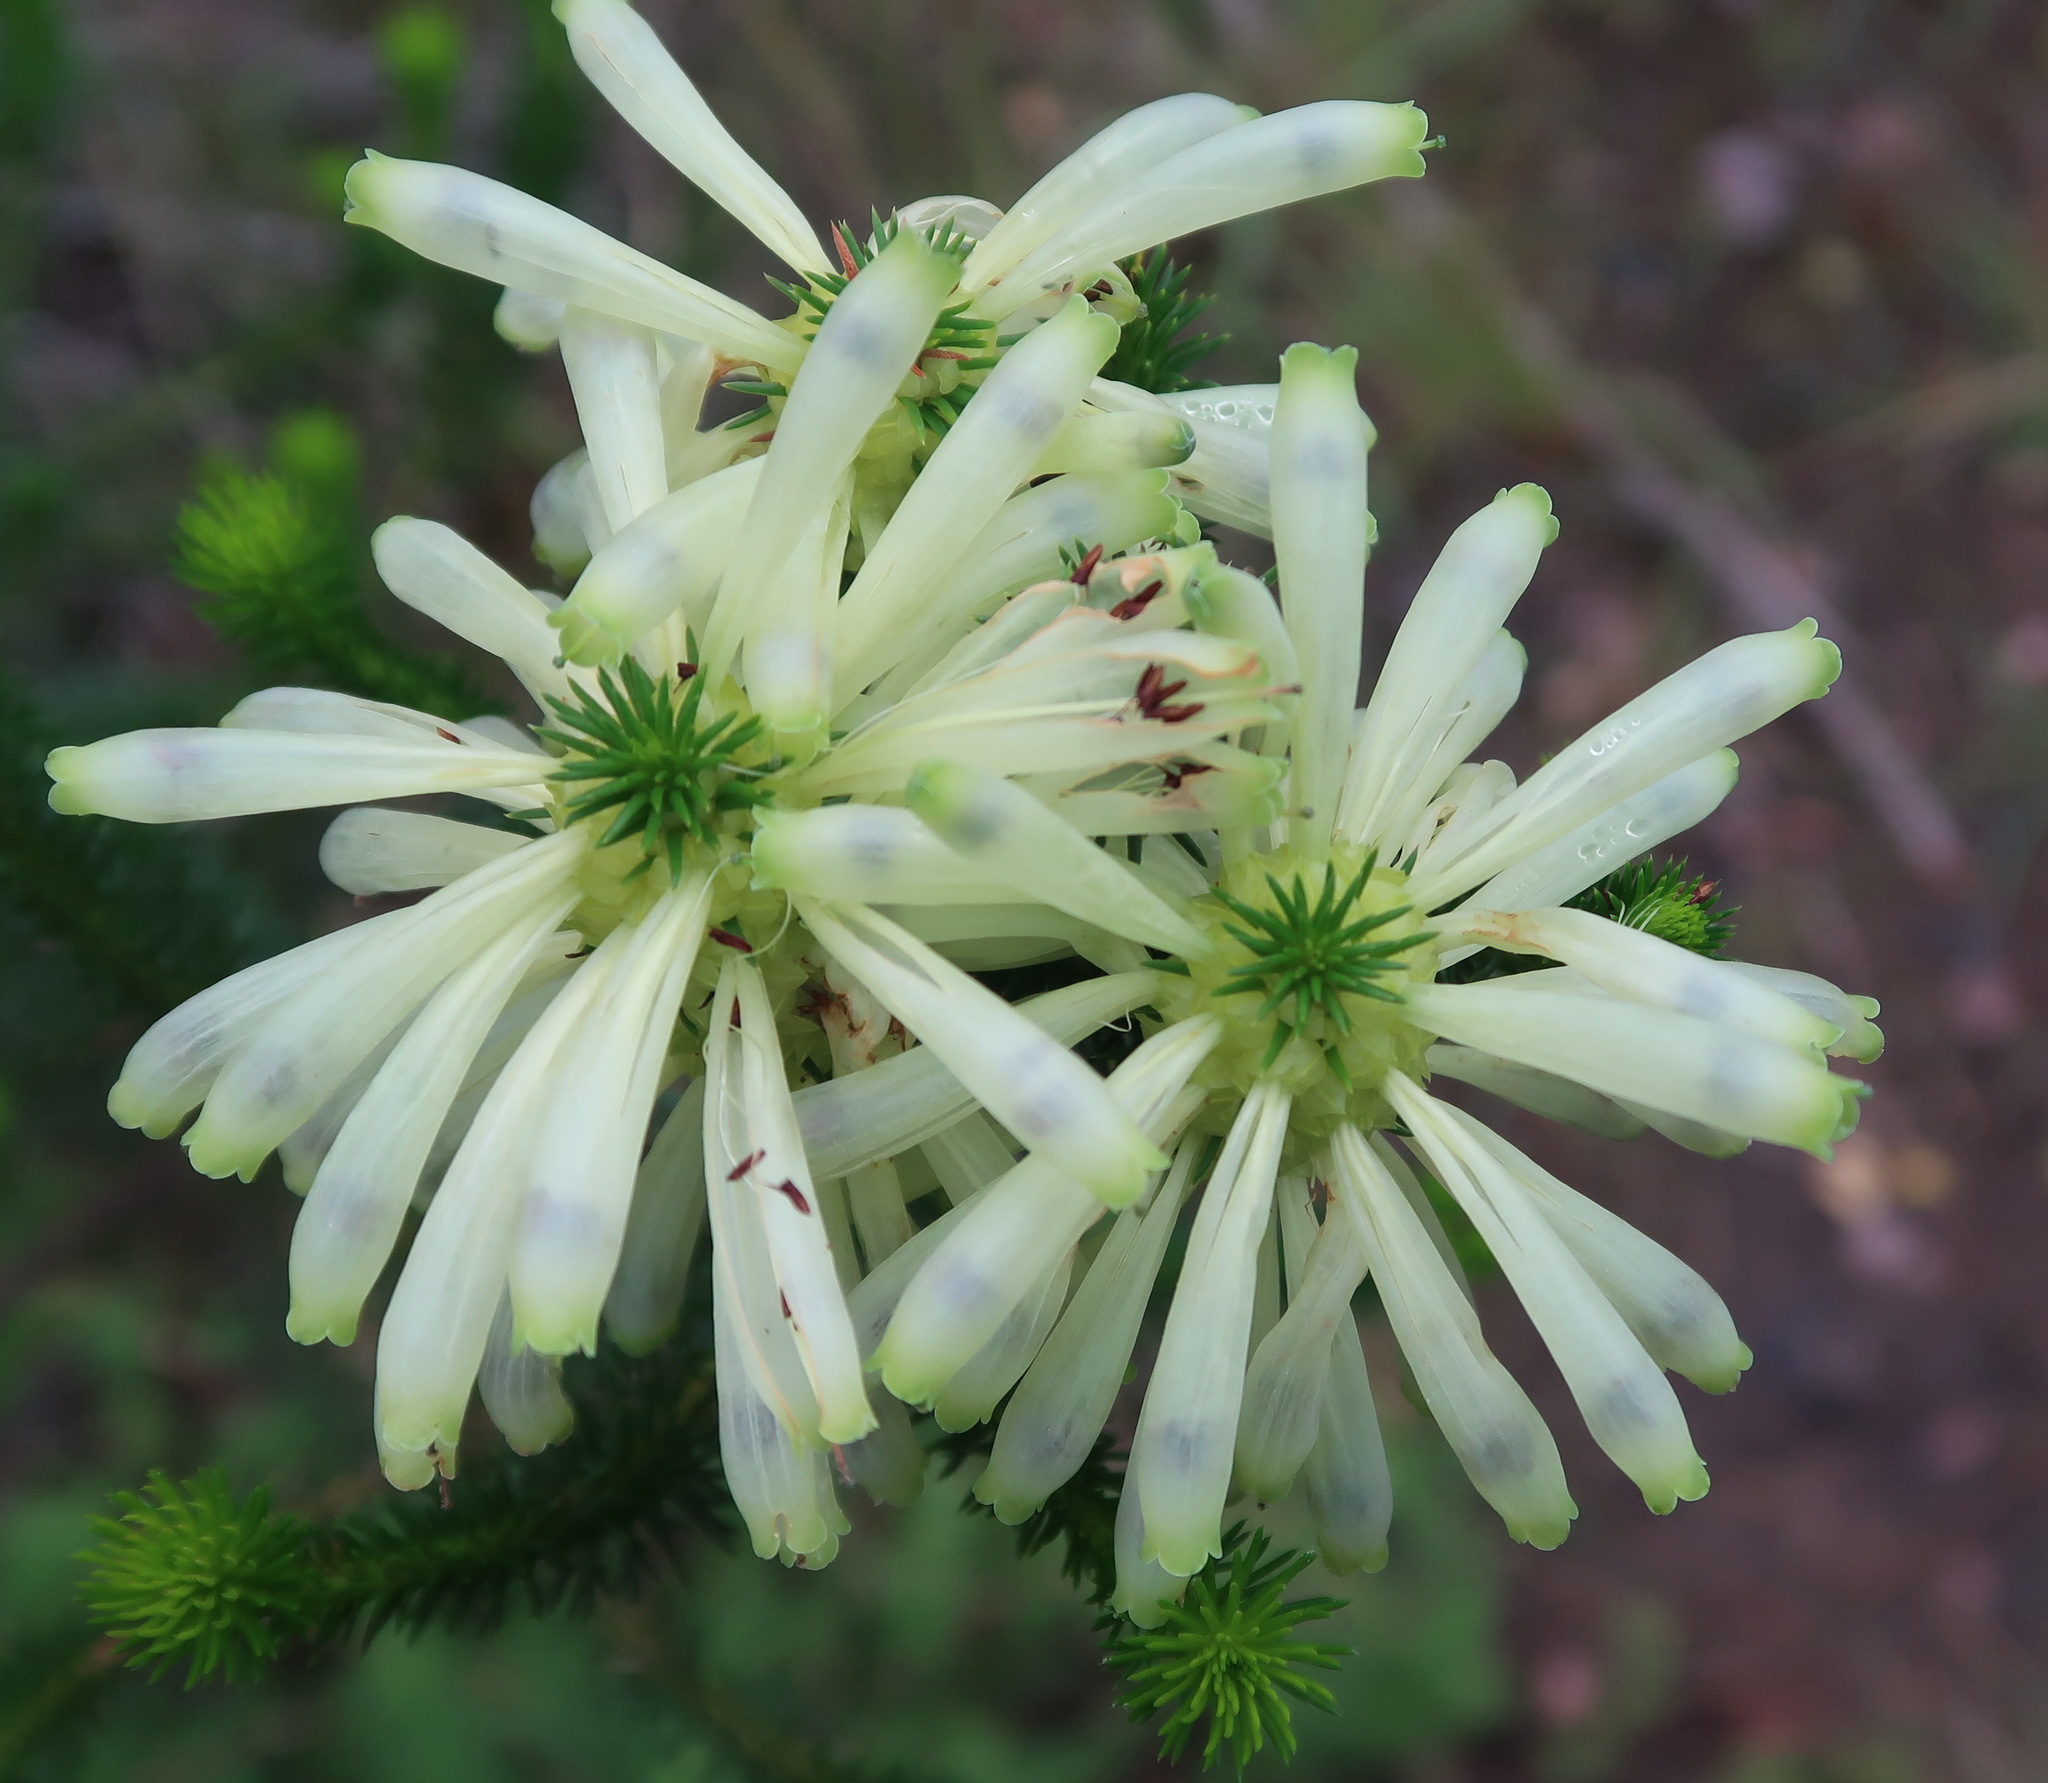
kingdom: Plantae
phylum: Tracheophyta
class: Magnoliopsida
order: Ericales
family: Ericaceae
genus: Erica
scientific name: Erica sessiliflora
